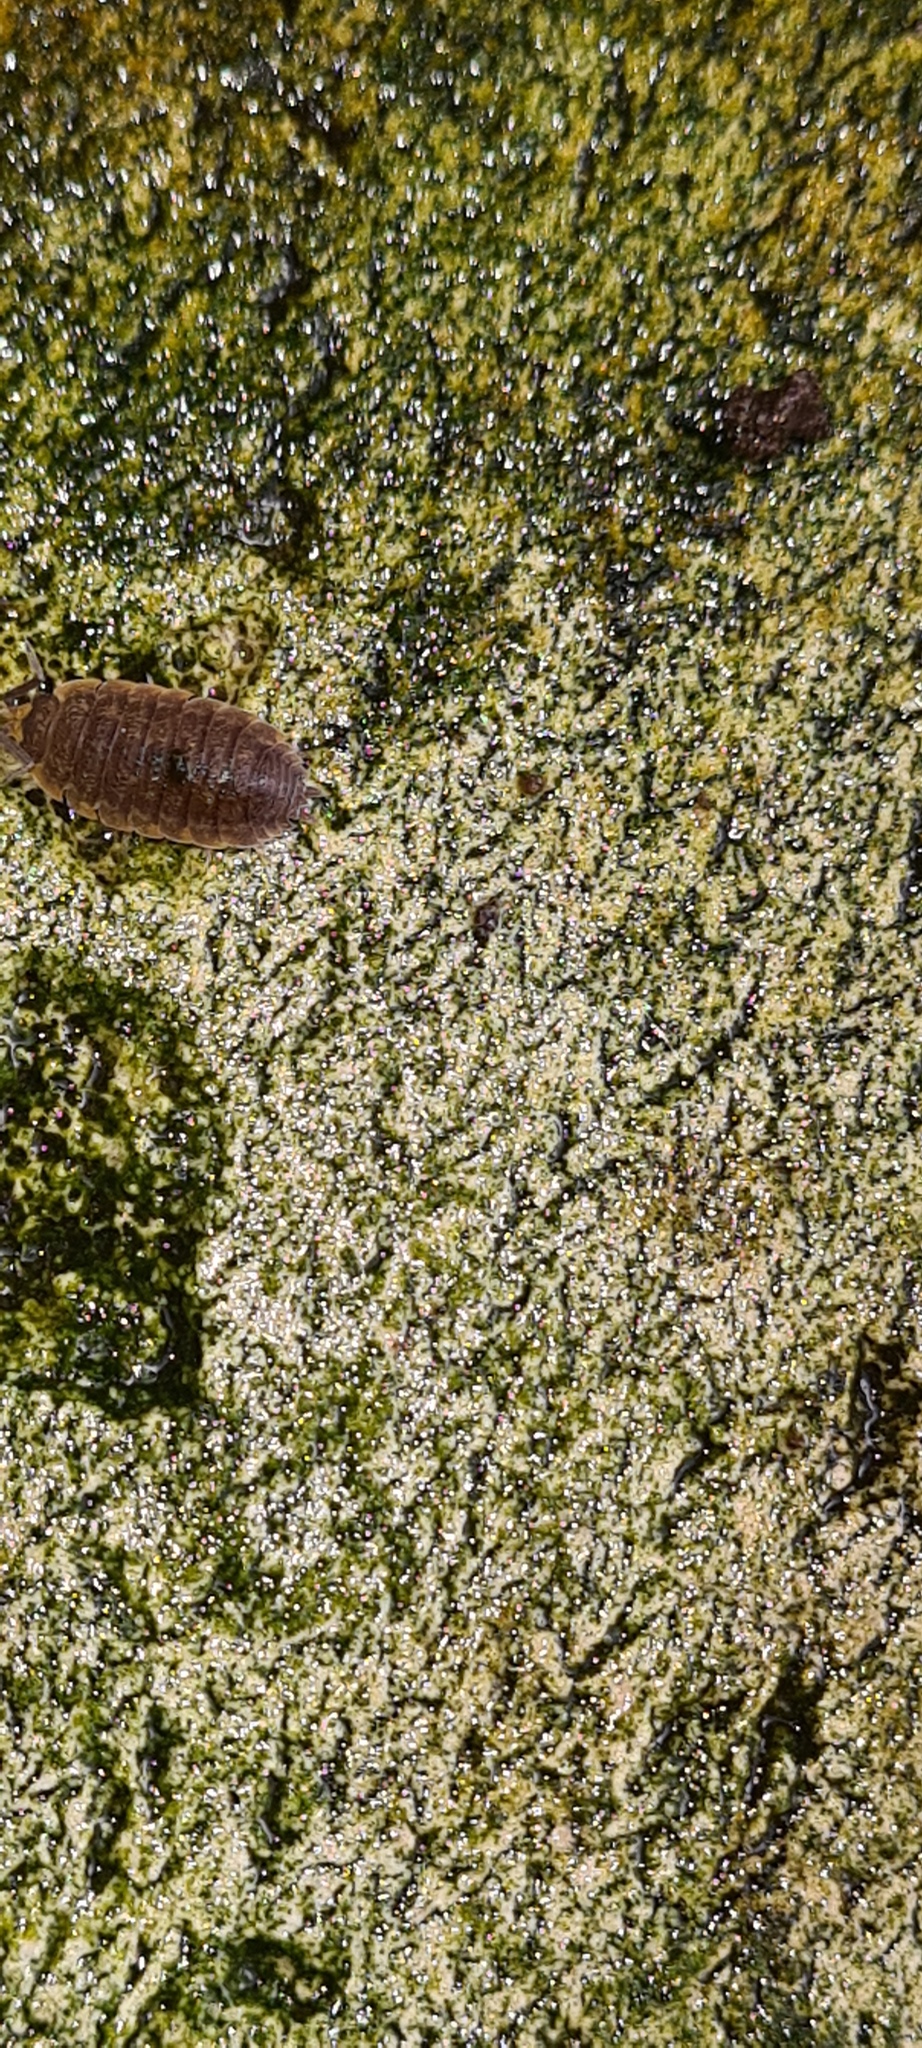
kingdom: Animalia
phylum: Arthropoda
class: Malacostraca
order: Isopoda
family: Porcellionidae
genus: Porcellio
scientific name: Porcellio scaber
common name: Common rough woodlouse
